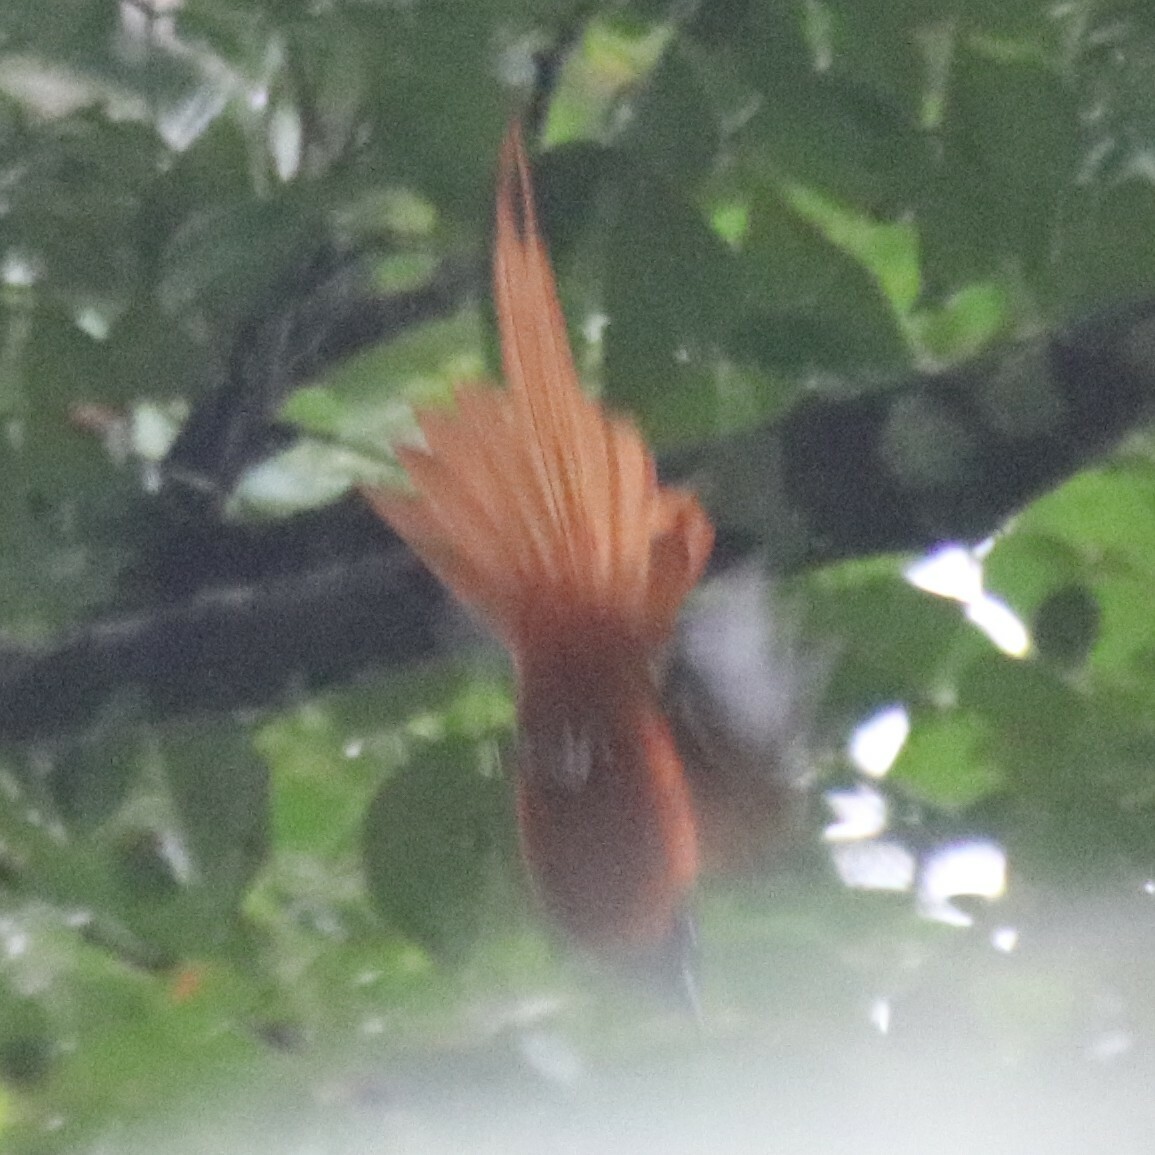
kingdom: Animalia
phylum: Chordata
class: Aves
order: Passeriformes
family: Monarchidae
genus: Terpsiphone
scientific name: Terpsiphone rufiventer
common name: Red-bellied paradise flycatcher
